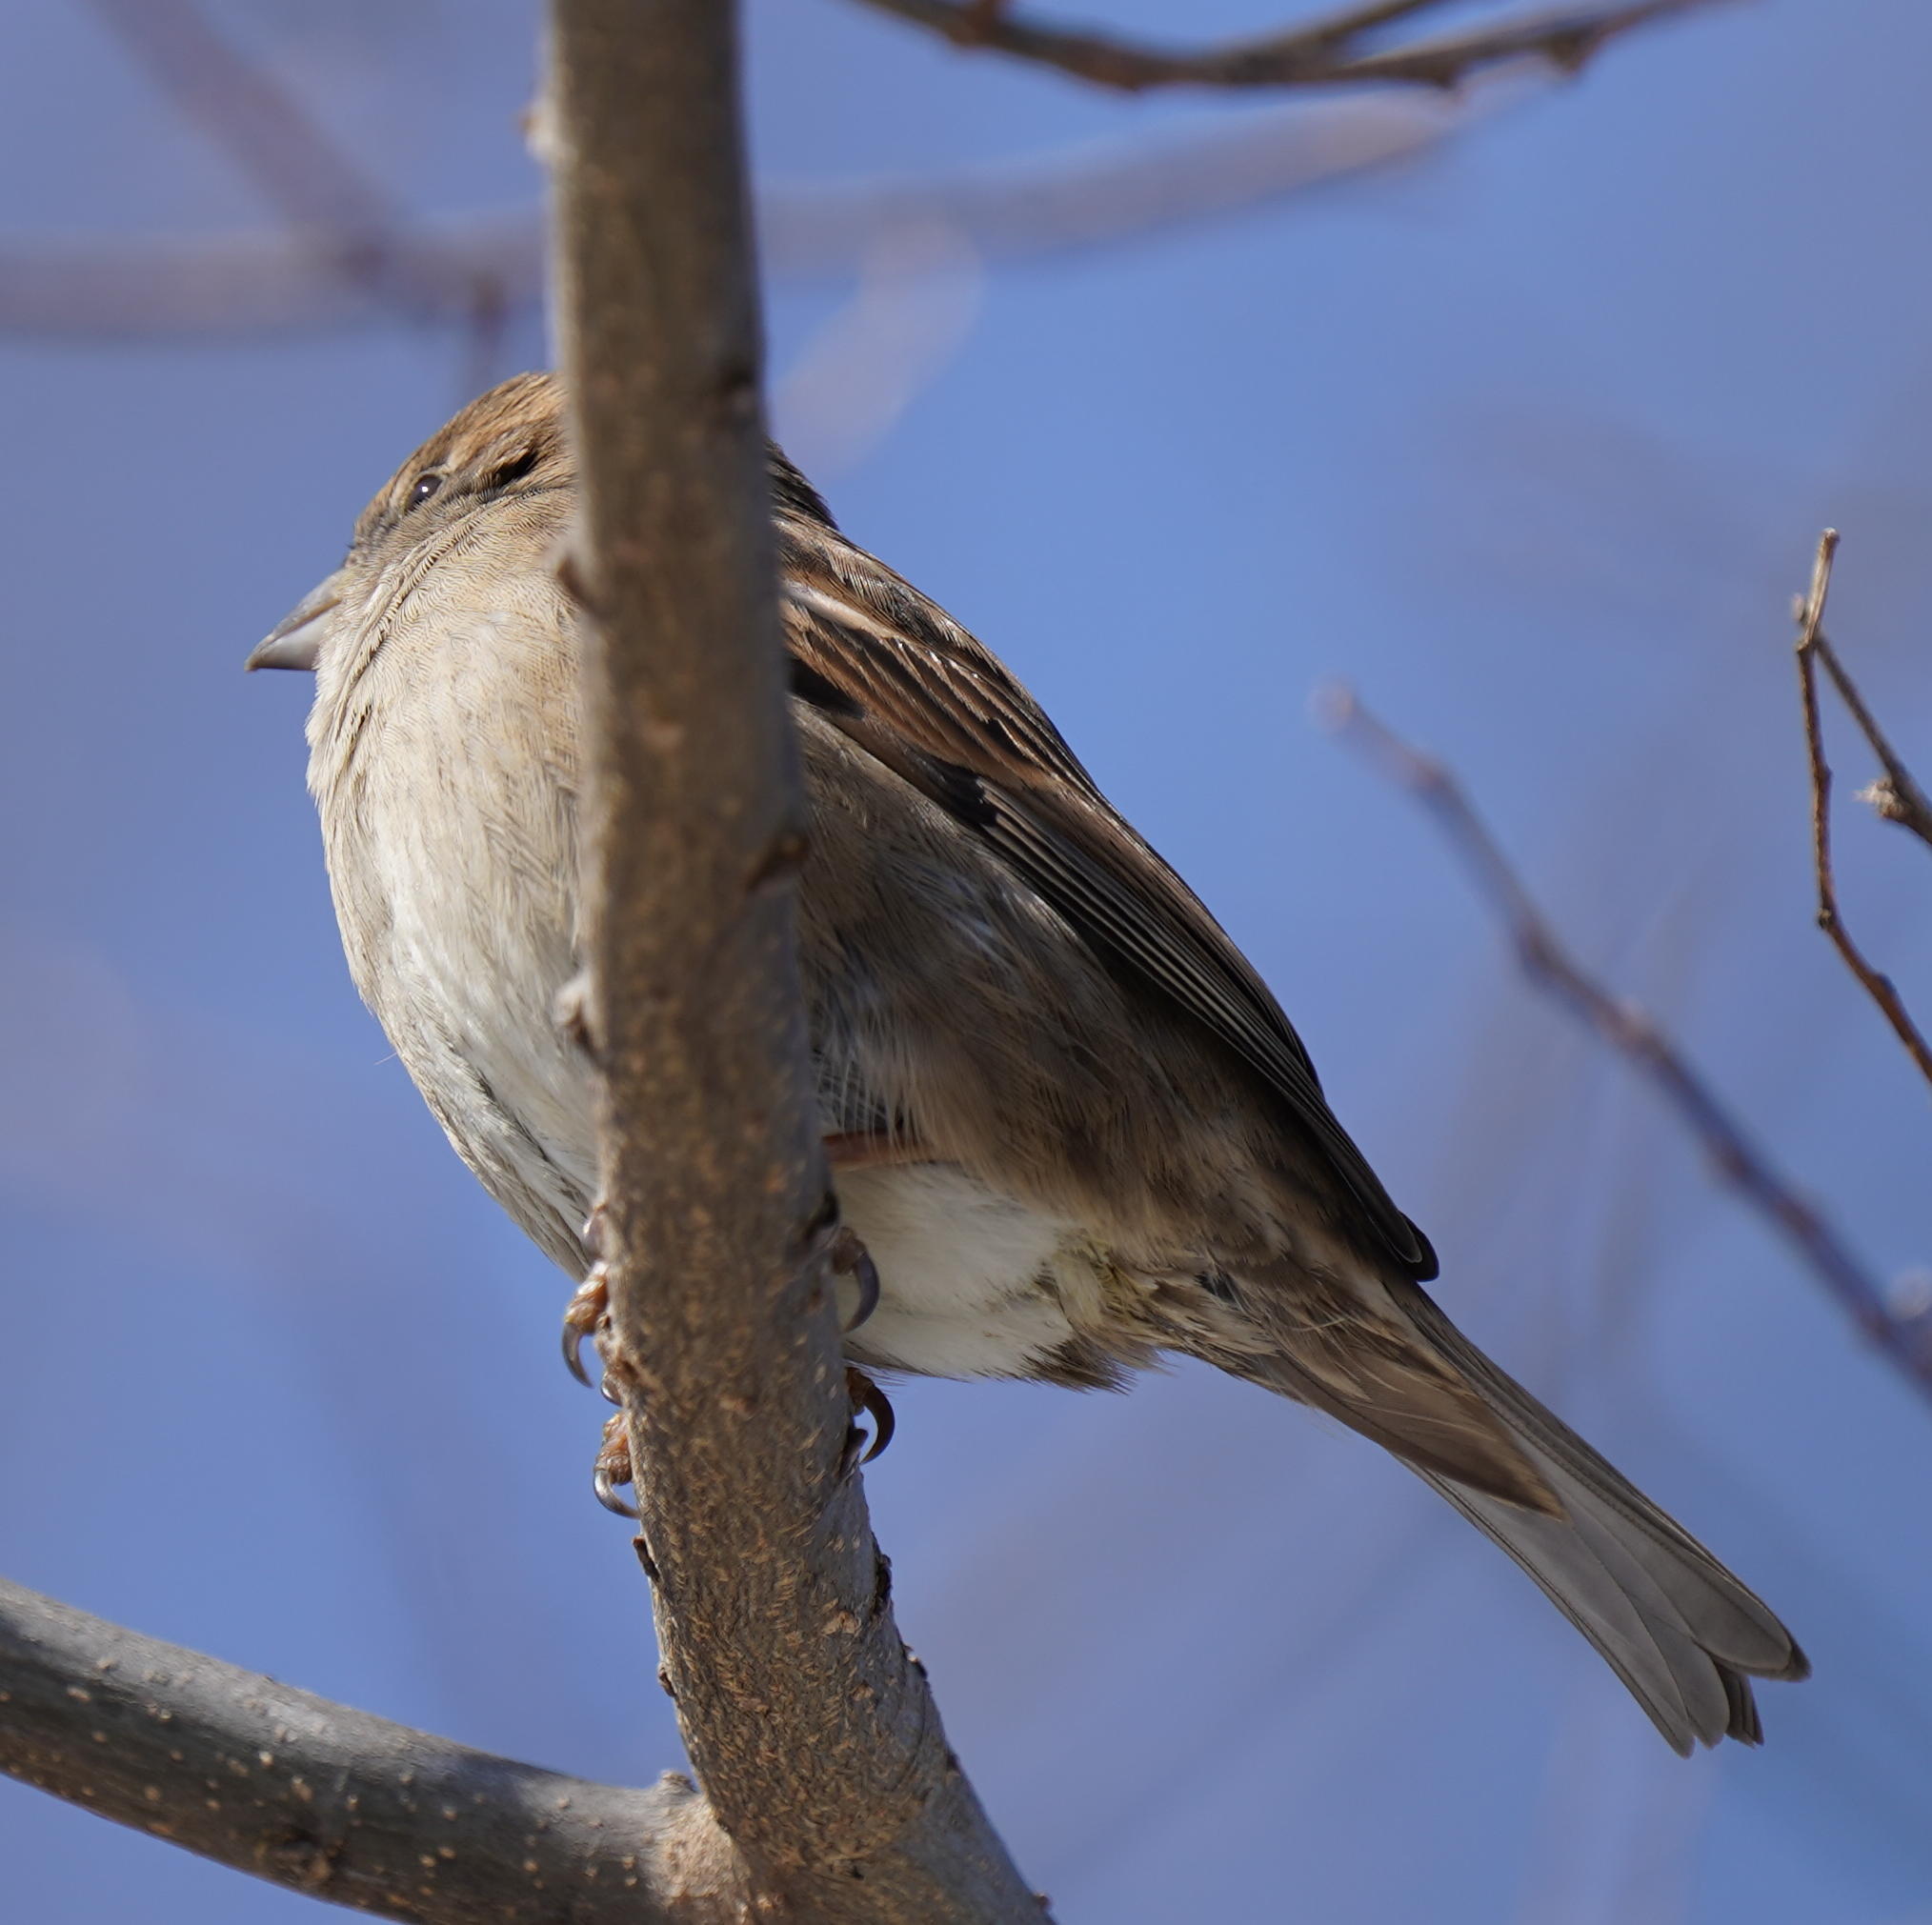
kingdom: Animalia
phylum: Chordata
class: Aves
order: Passeriformes
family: Passeridae
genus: Passer
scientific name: Passer domesticus
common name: House sparrow
